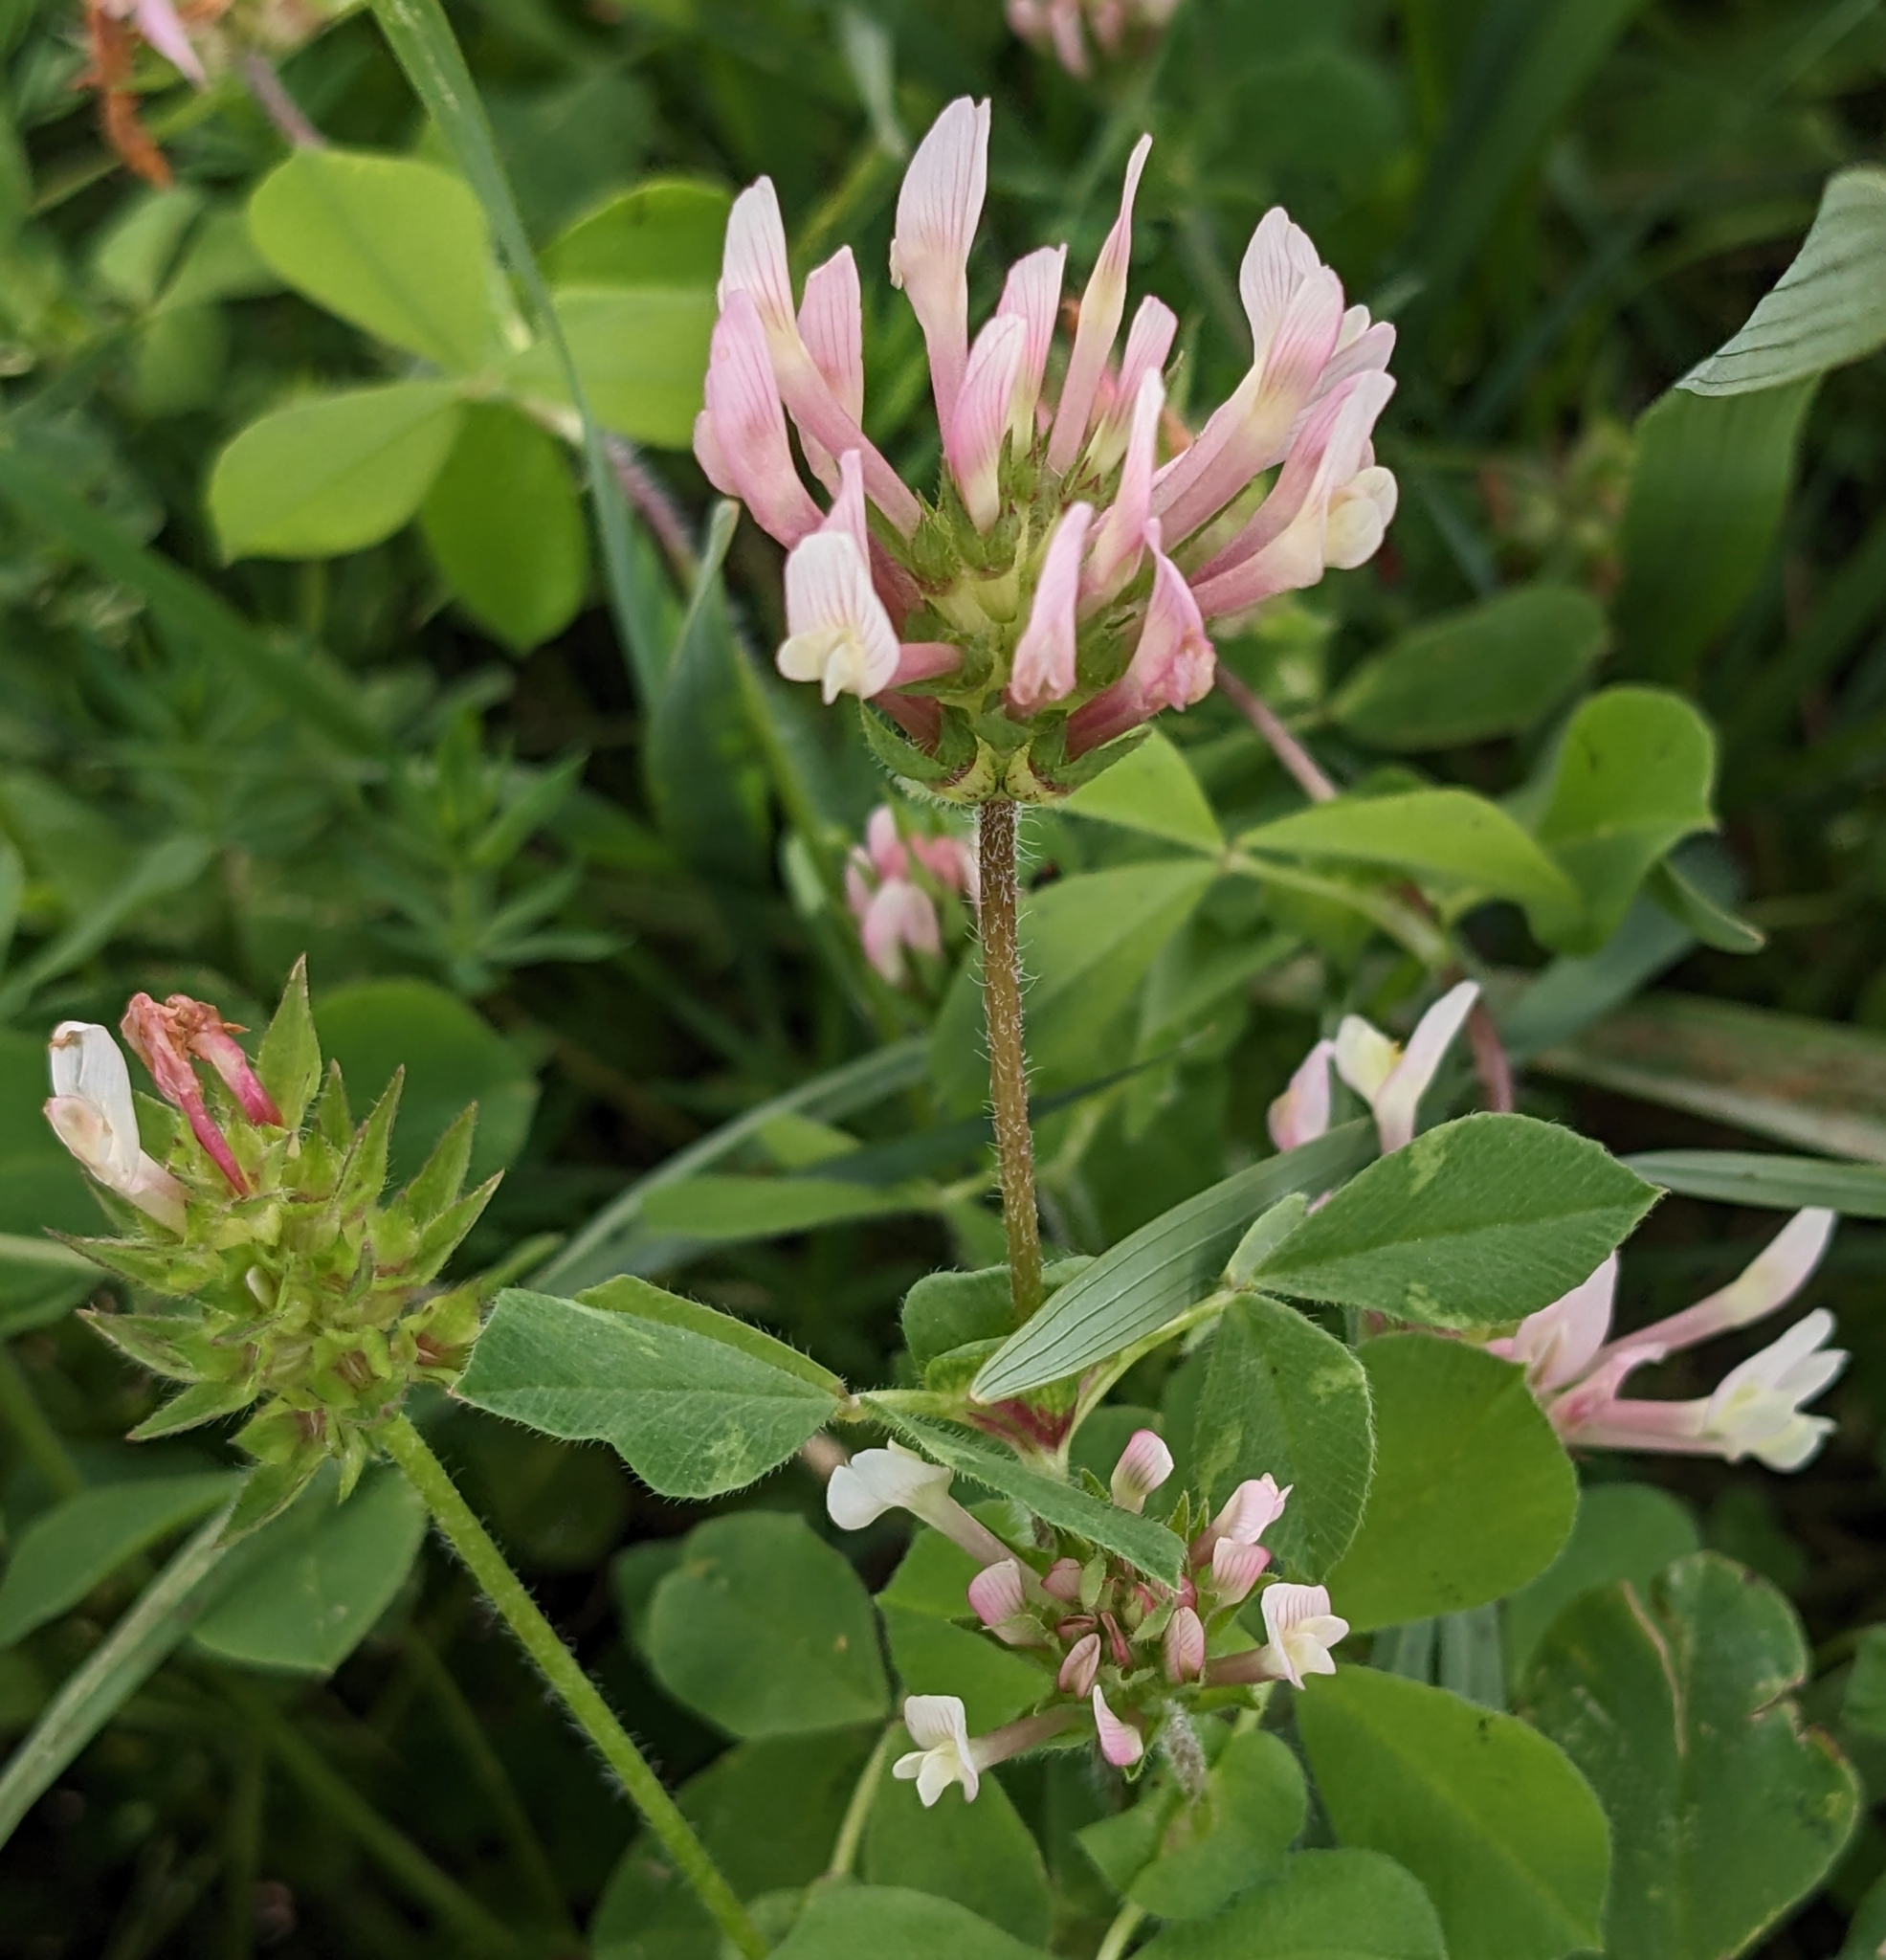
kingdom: Plantae
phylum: Tracheophyta
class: Magnoliopsida
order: Fabales
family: Fabaceae
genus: Trifolium
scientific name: Trifolium clypeatum
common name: Shield clover
